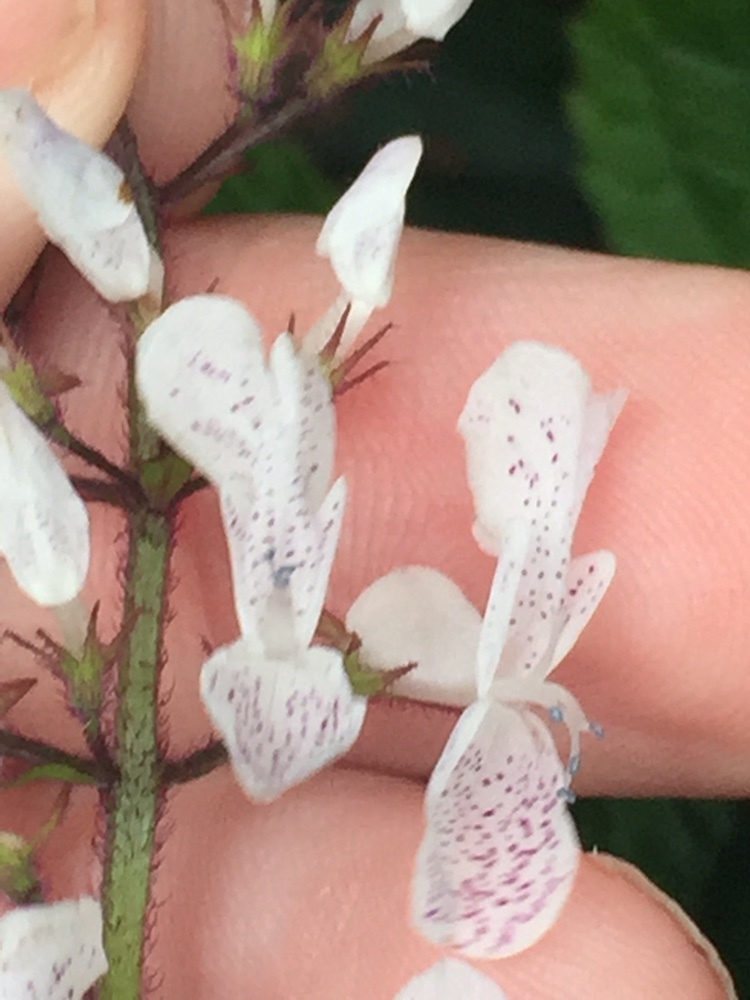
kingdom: Plantae
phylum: Tracheophyta
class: Magnoliopsida
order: Lamiales
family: Lamiaceae
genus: Plectranthus
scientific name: Plectranthus ciliatus
